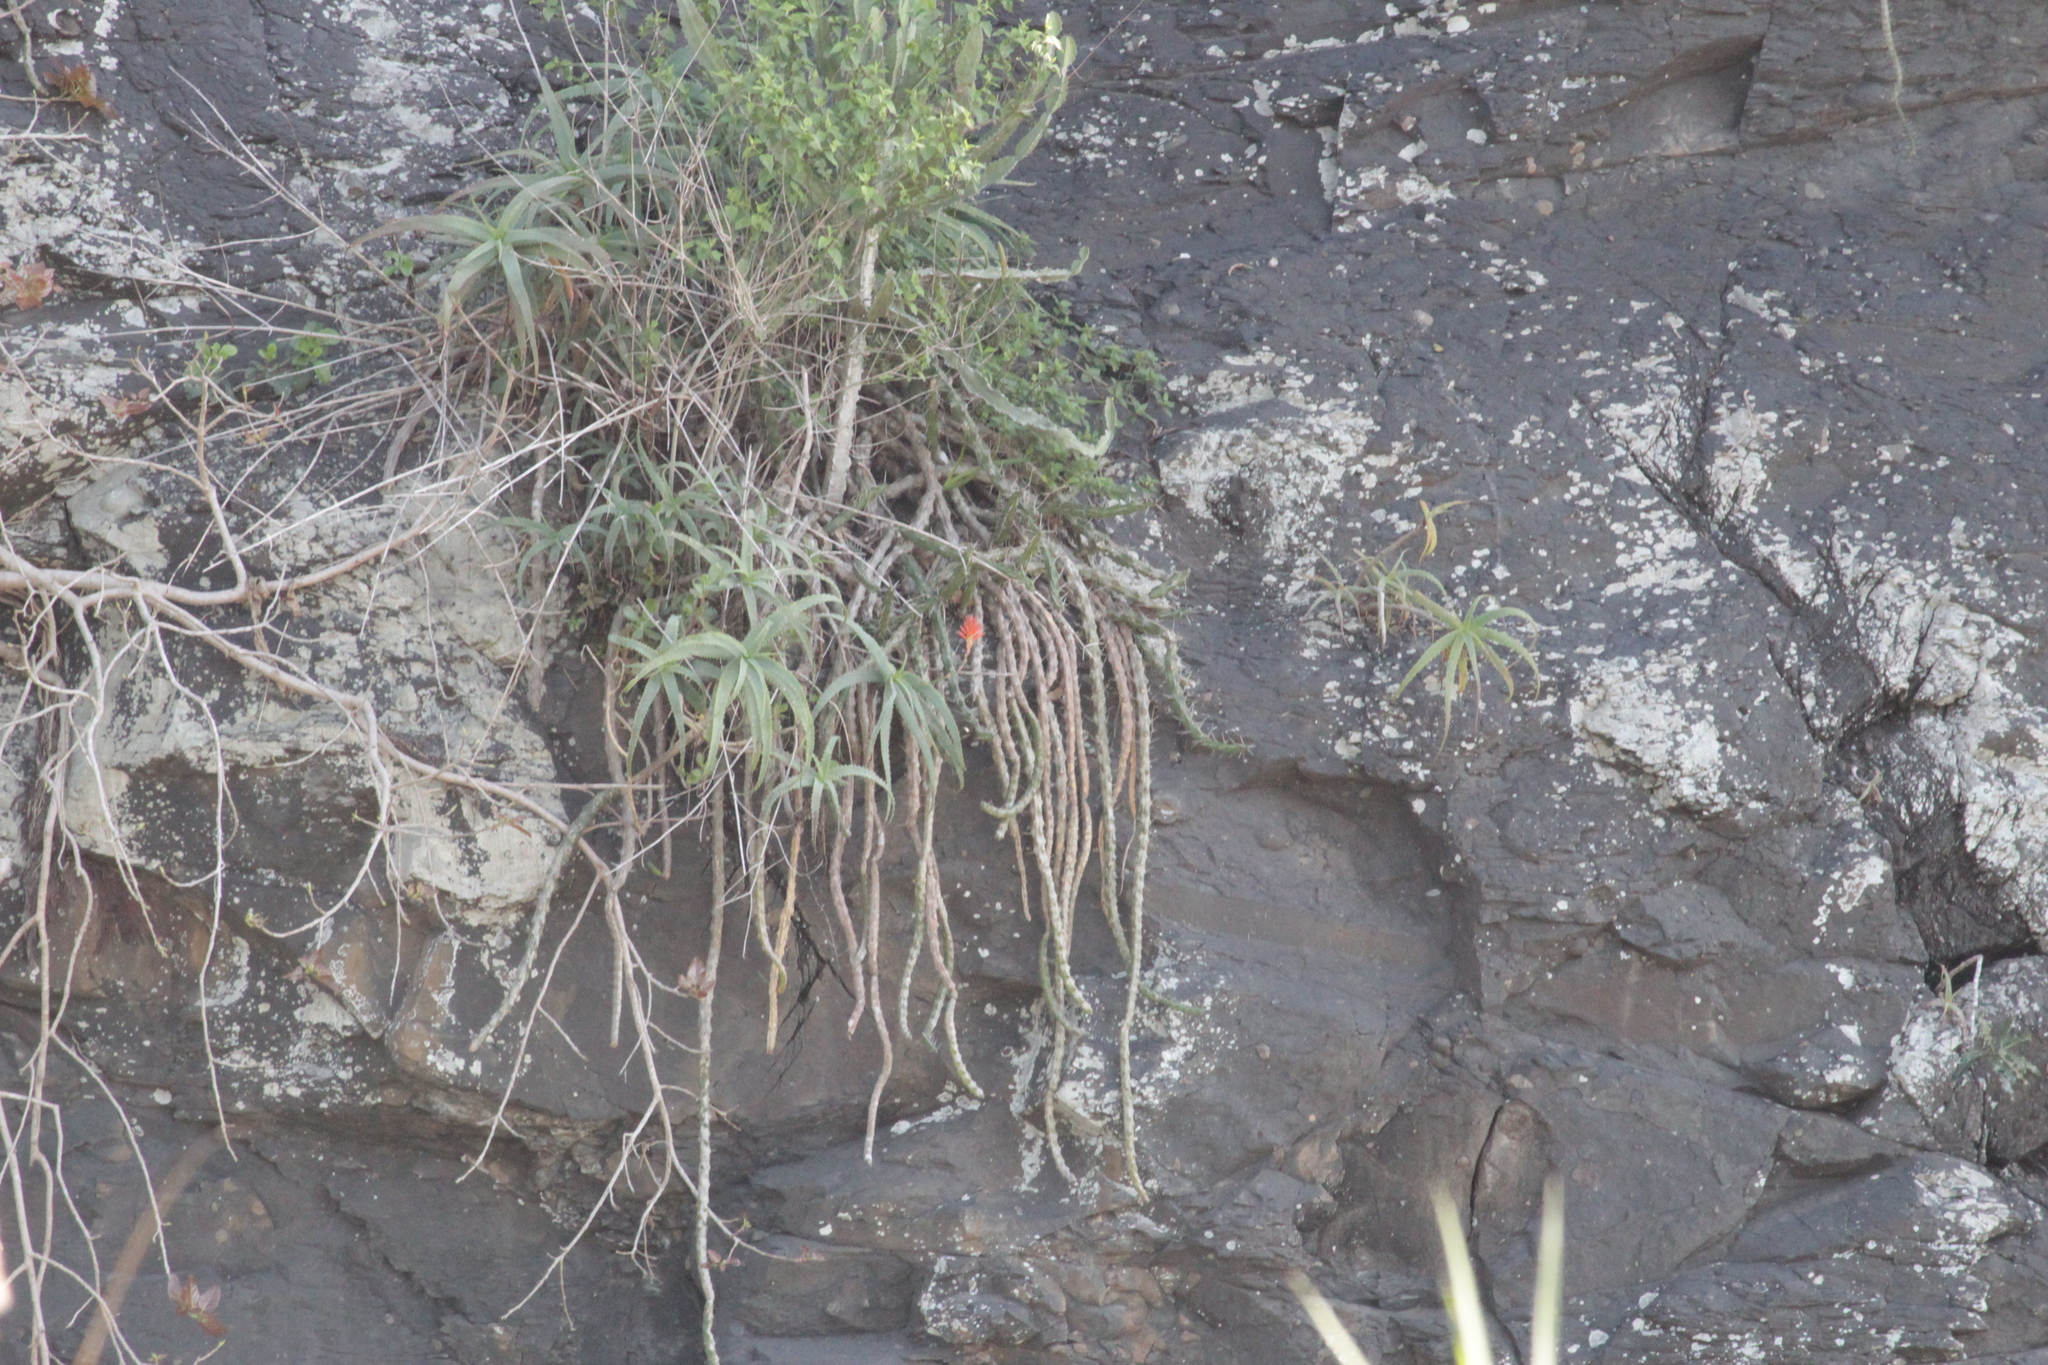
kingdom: Plantae
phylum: Tracheophyta
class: Liliopsida
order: Asparagales
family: Asphodelaceae
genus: Aloe
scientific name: Aloe arborescens
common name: Candelabra aloe
